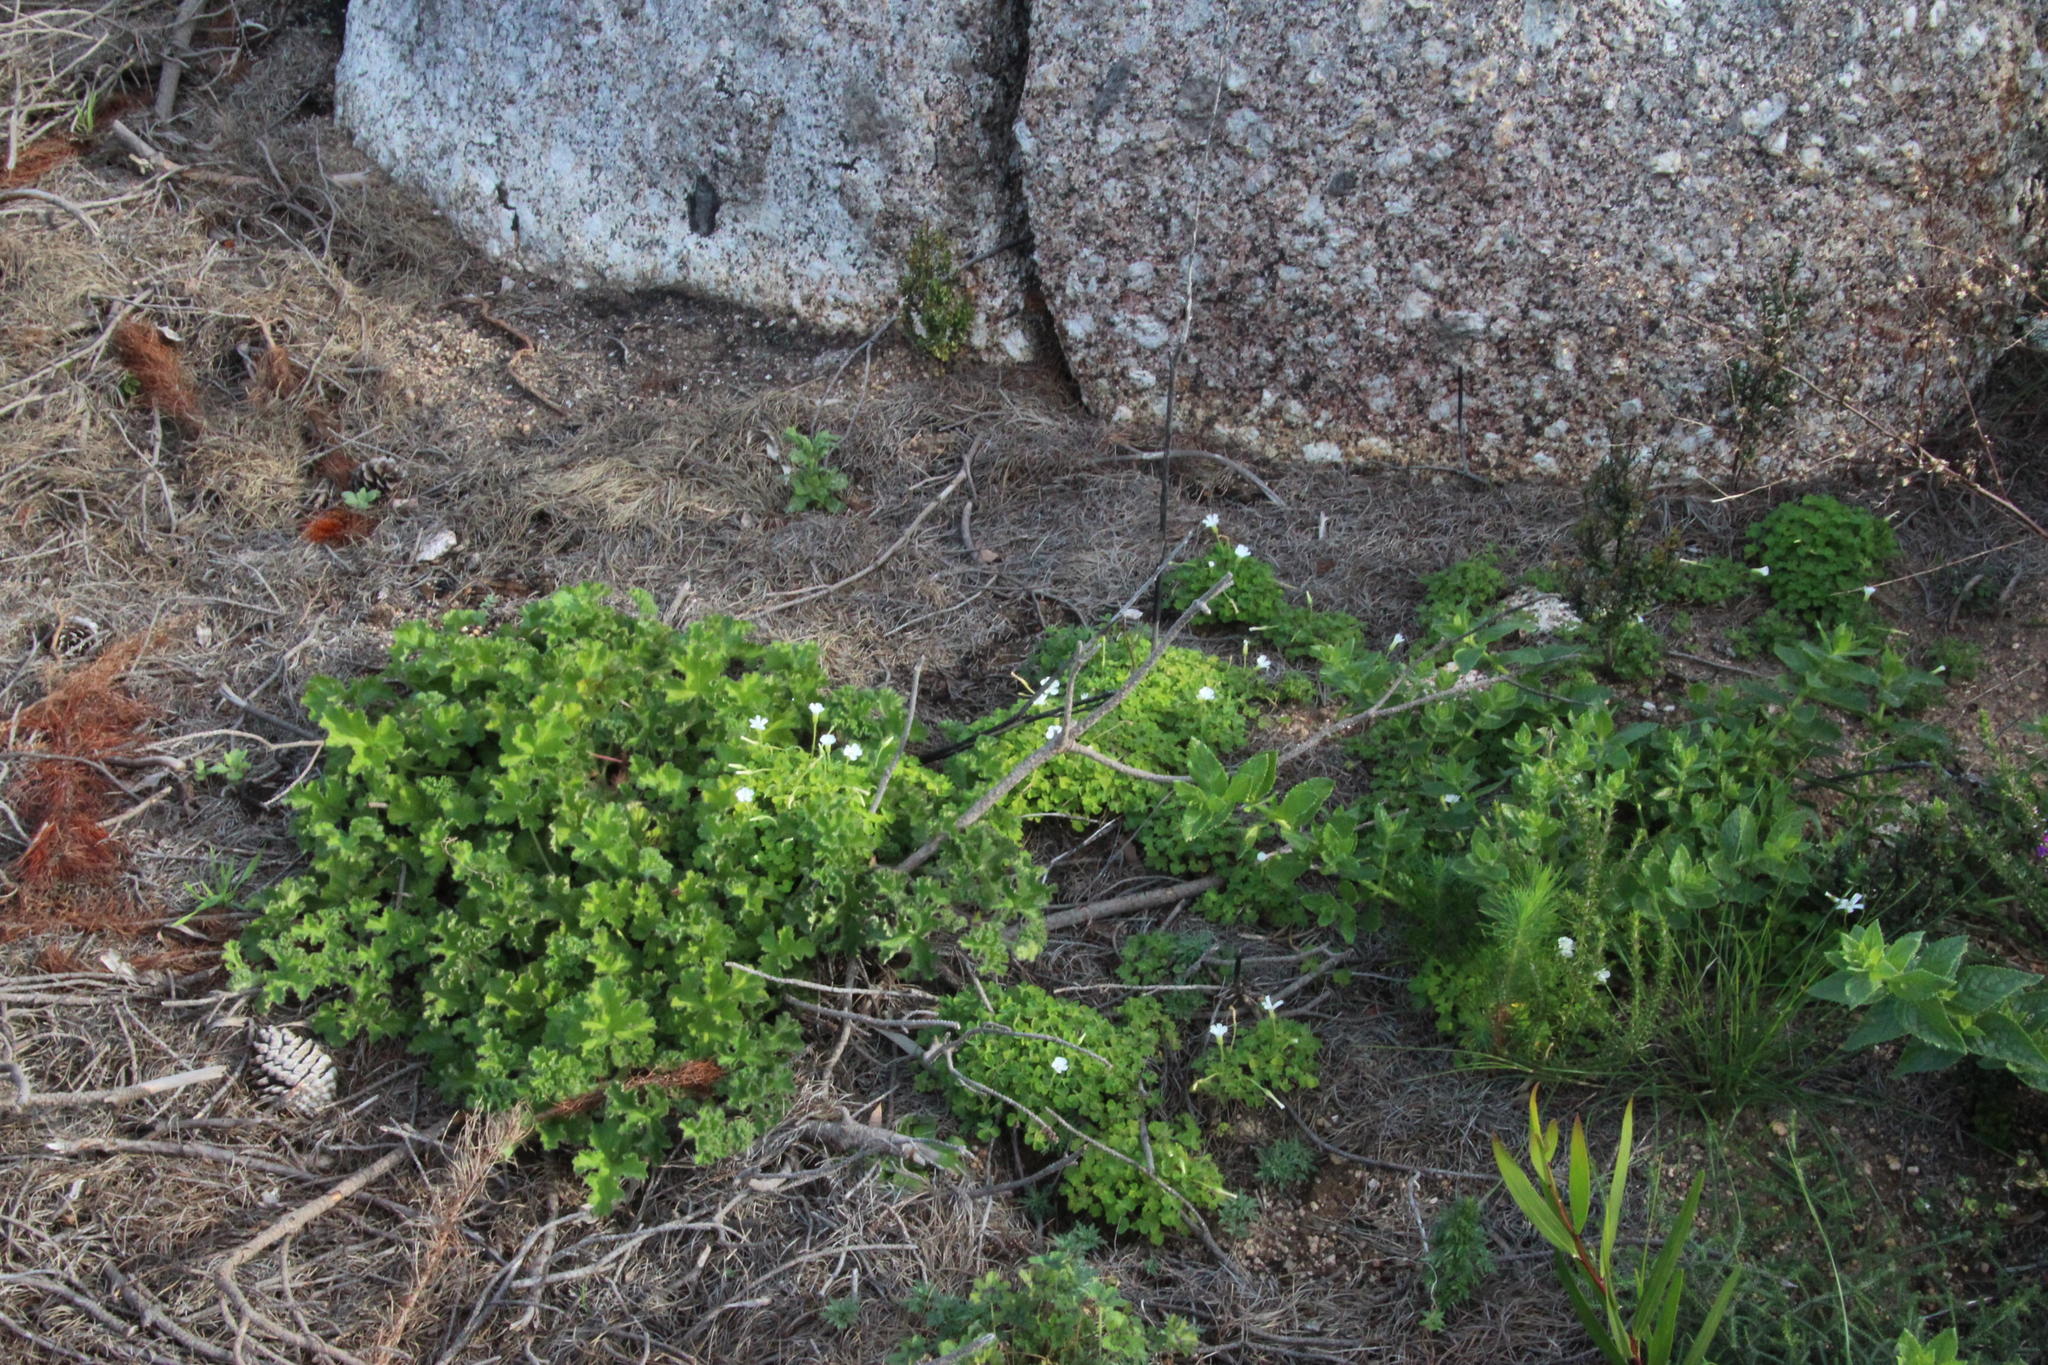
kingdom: Plantae
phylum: Tracheophyta
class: Magnoliopsida
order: Oxalidales
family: Oxalidaceae
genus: Oxalis
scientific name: Oxalis lanata
